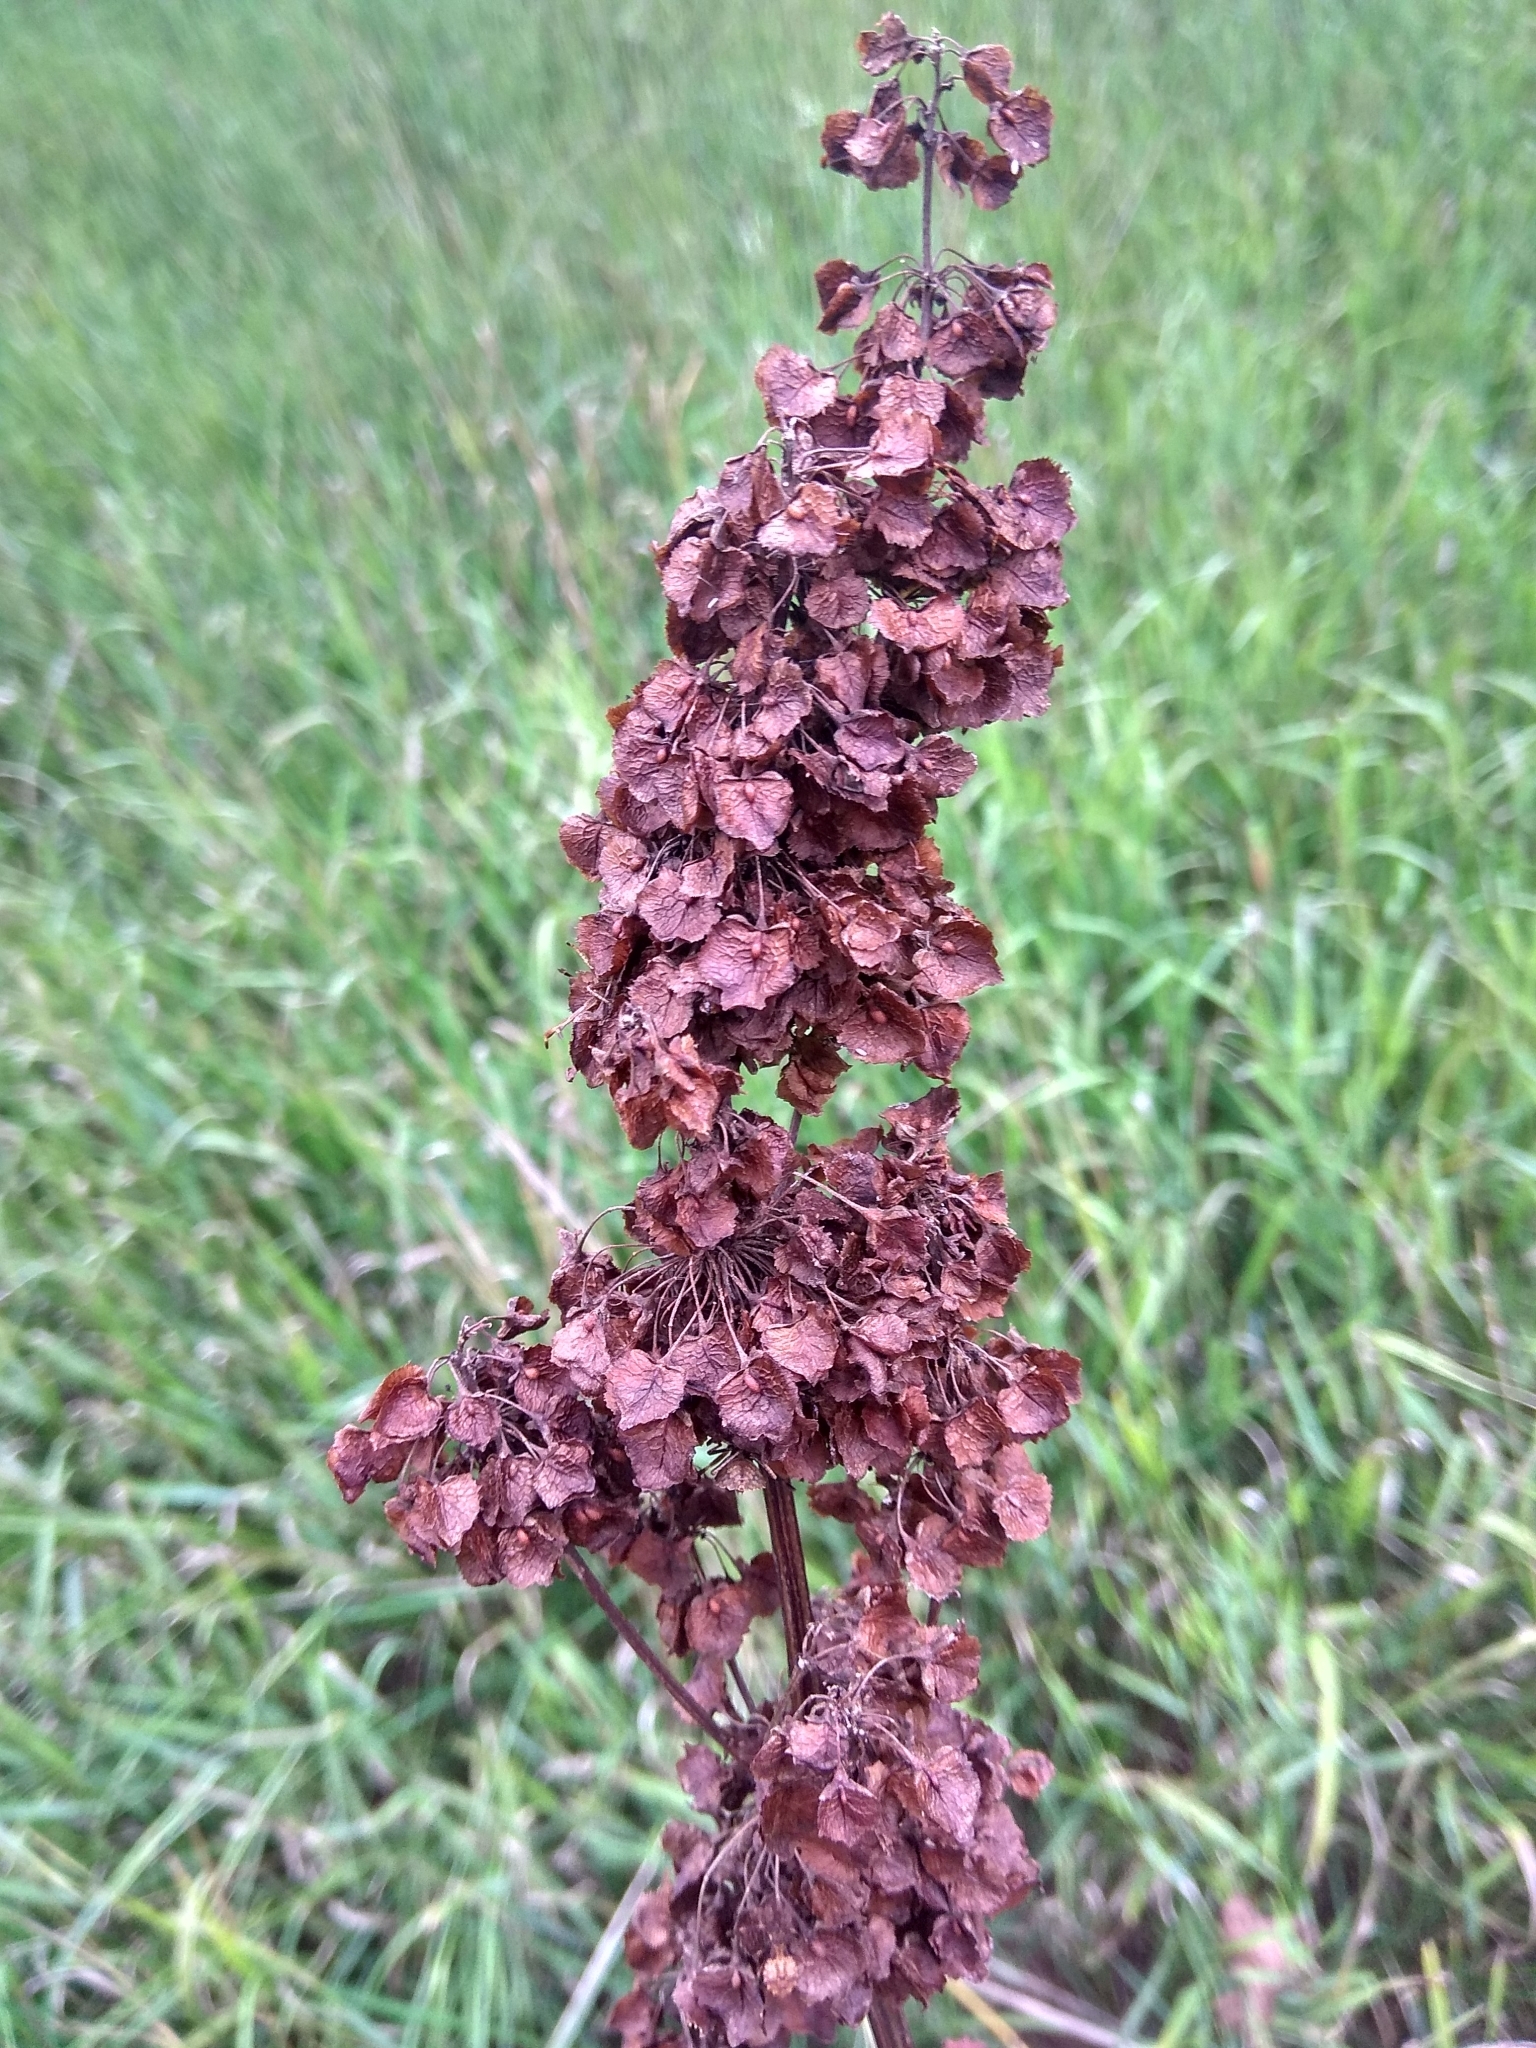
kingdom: Plantae
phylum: Tracheophyta
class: Magnoliopsida
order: Caryophyllales
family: Polygonaceae
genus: Rumex
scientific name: Rumex confertus
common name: Russian dock
